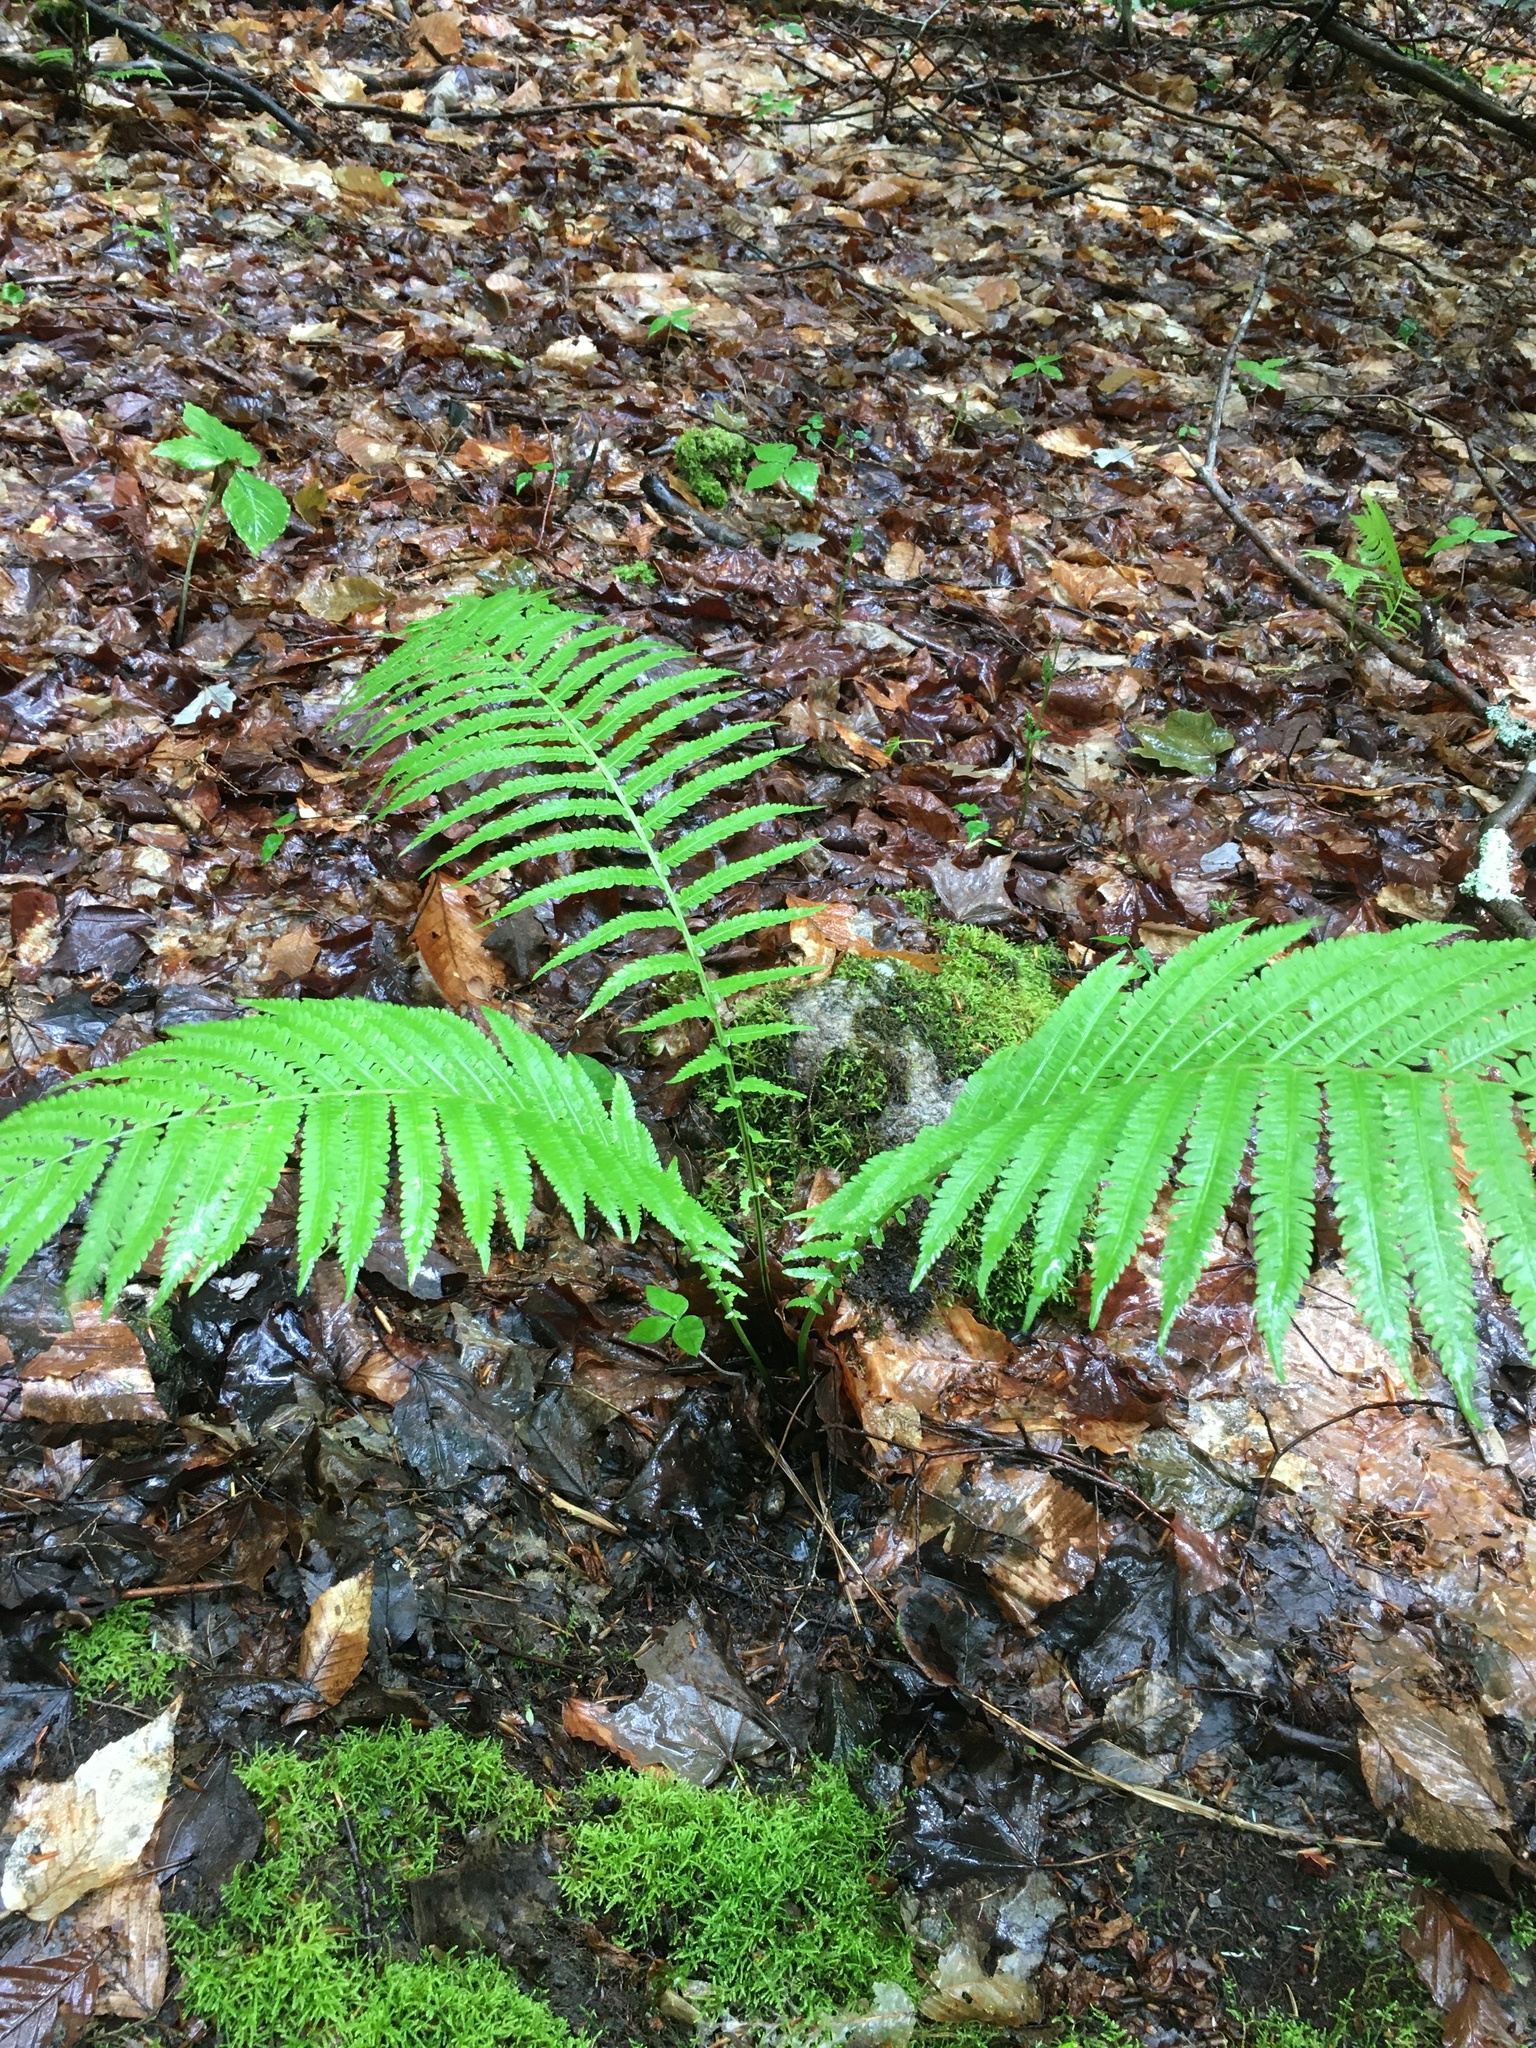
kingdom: Plantae
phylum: Tracheophyta
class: Polypodiopsida
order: Polypodiales
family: Onocleaceae
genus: Matteuccia
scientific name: Matteuccia struthiopteris
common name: Ostrich fern
